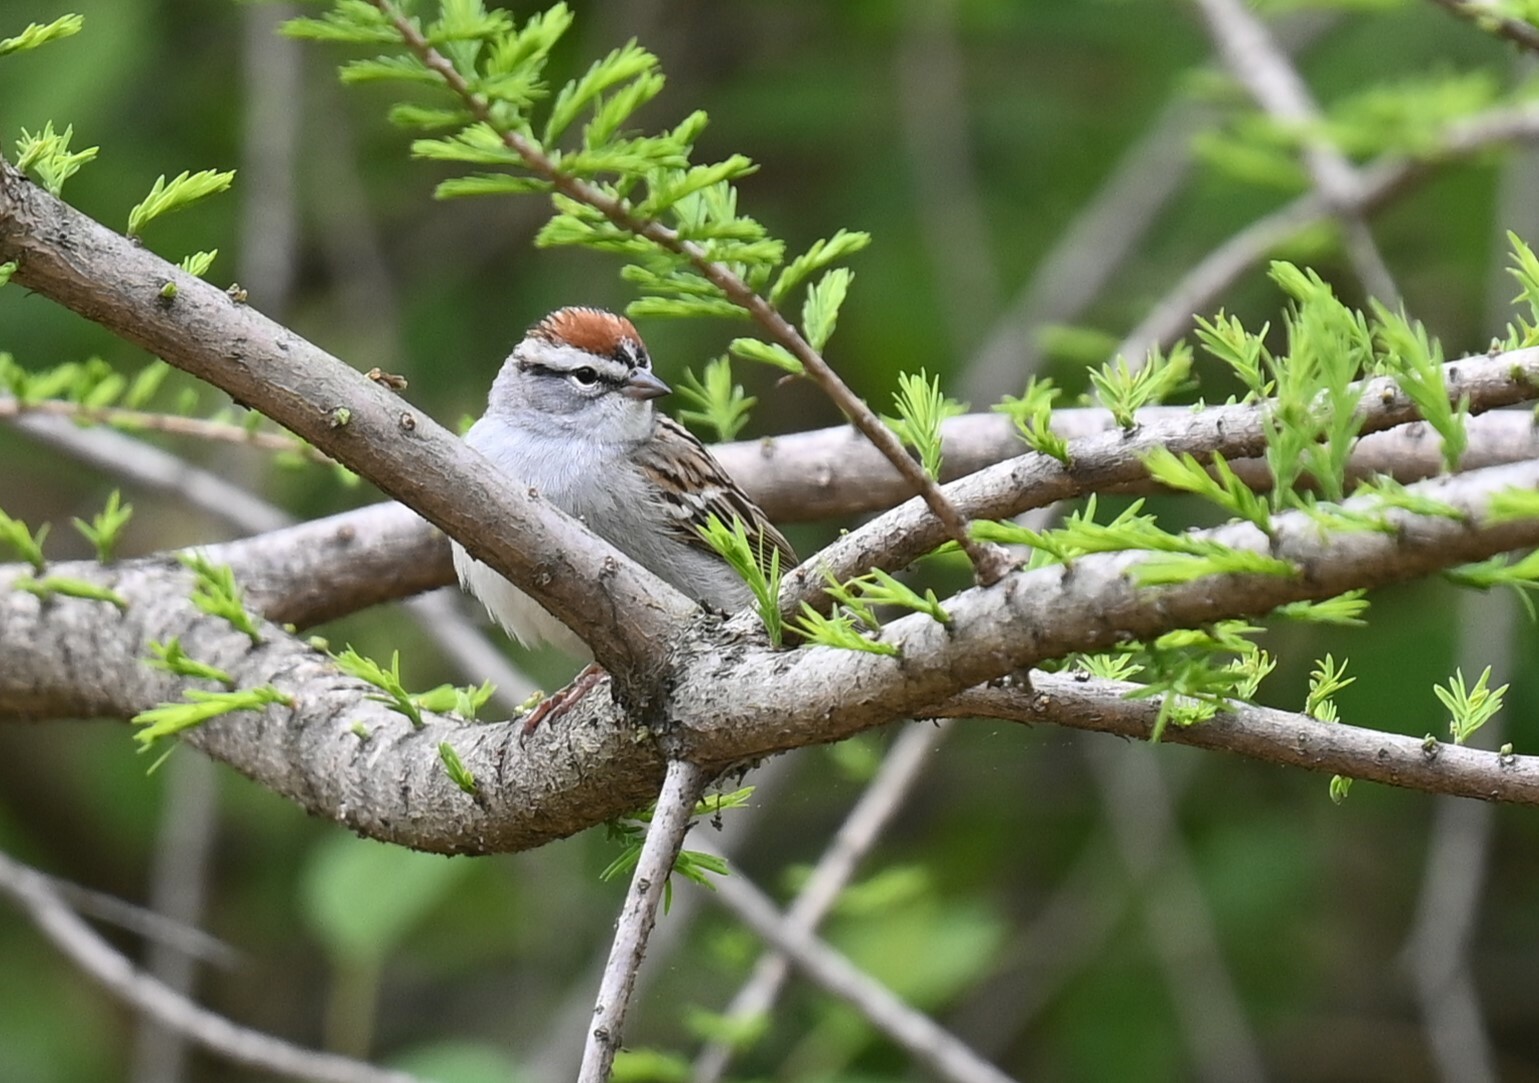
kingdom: Animalia
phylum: Chordata
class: Aves
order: Passeriformes
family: Passerellidae
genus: Spizella
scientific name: Spizella passerina
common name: Chipping sparrow
